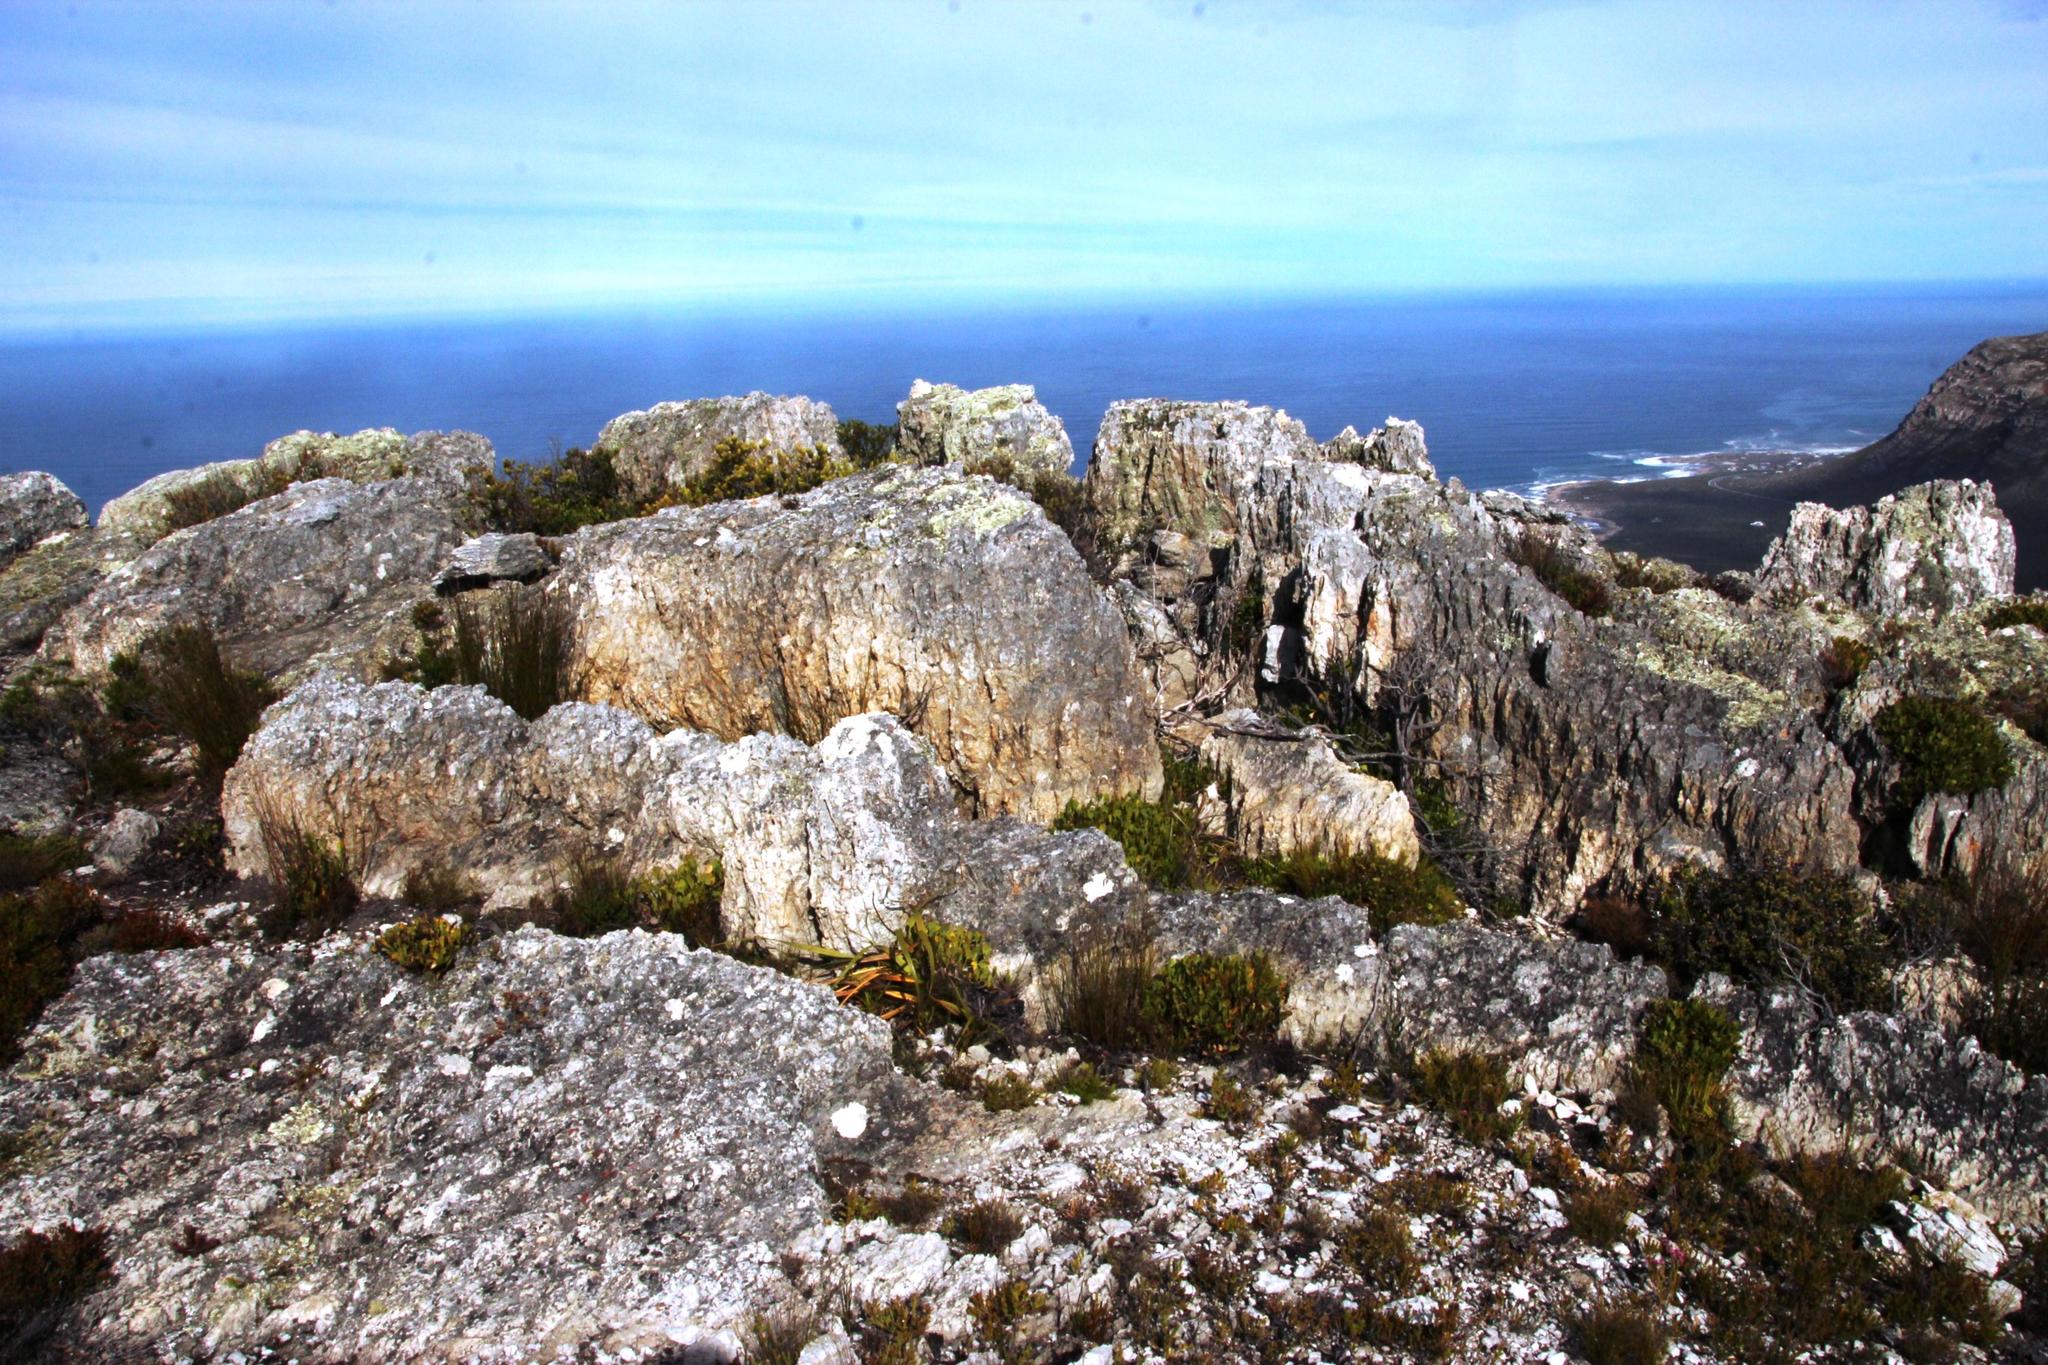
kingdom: Plantae
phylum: Tracheophyta
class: Magnoliopsida
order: Apiales
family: Apiaceae
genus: Centella
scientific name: Centella triloba
